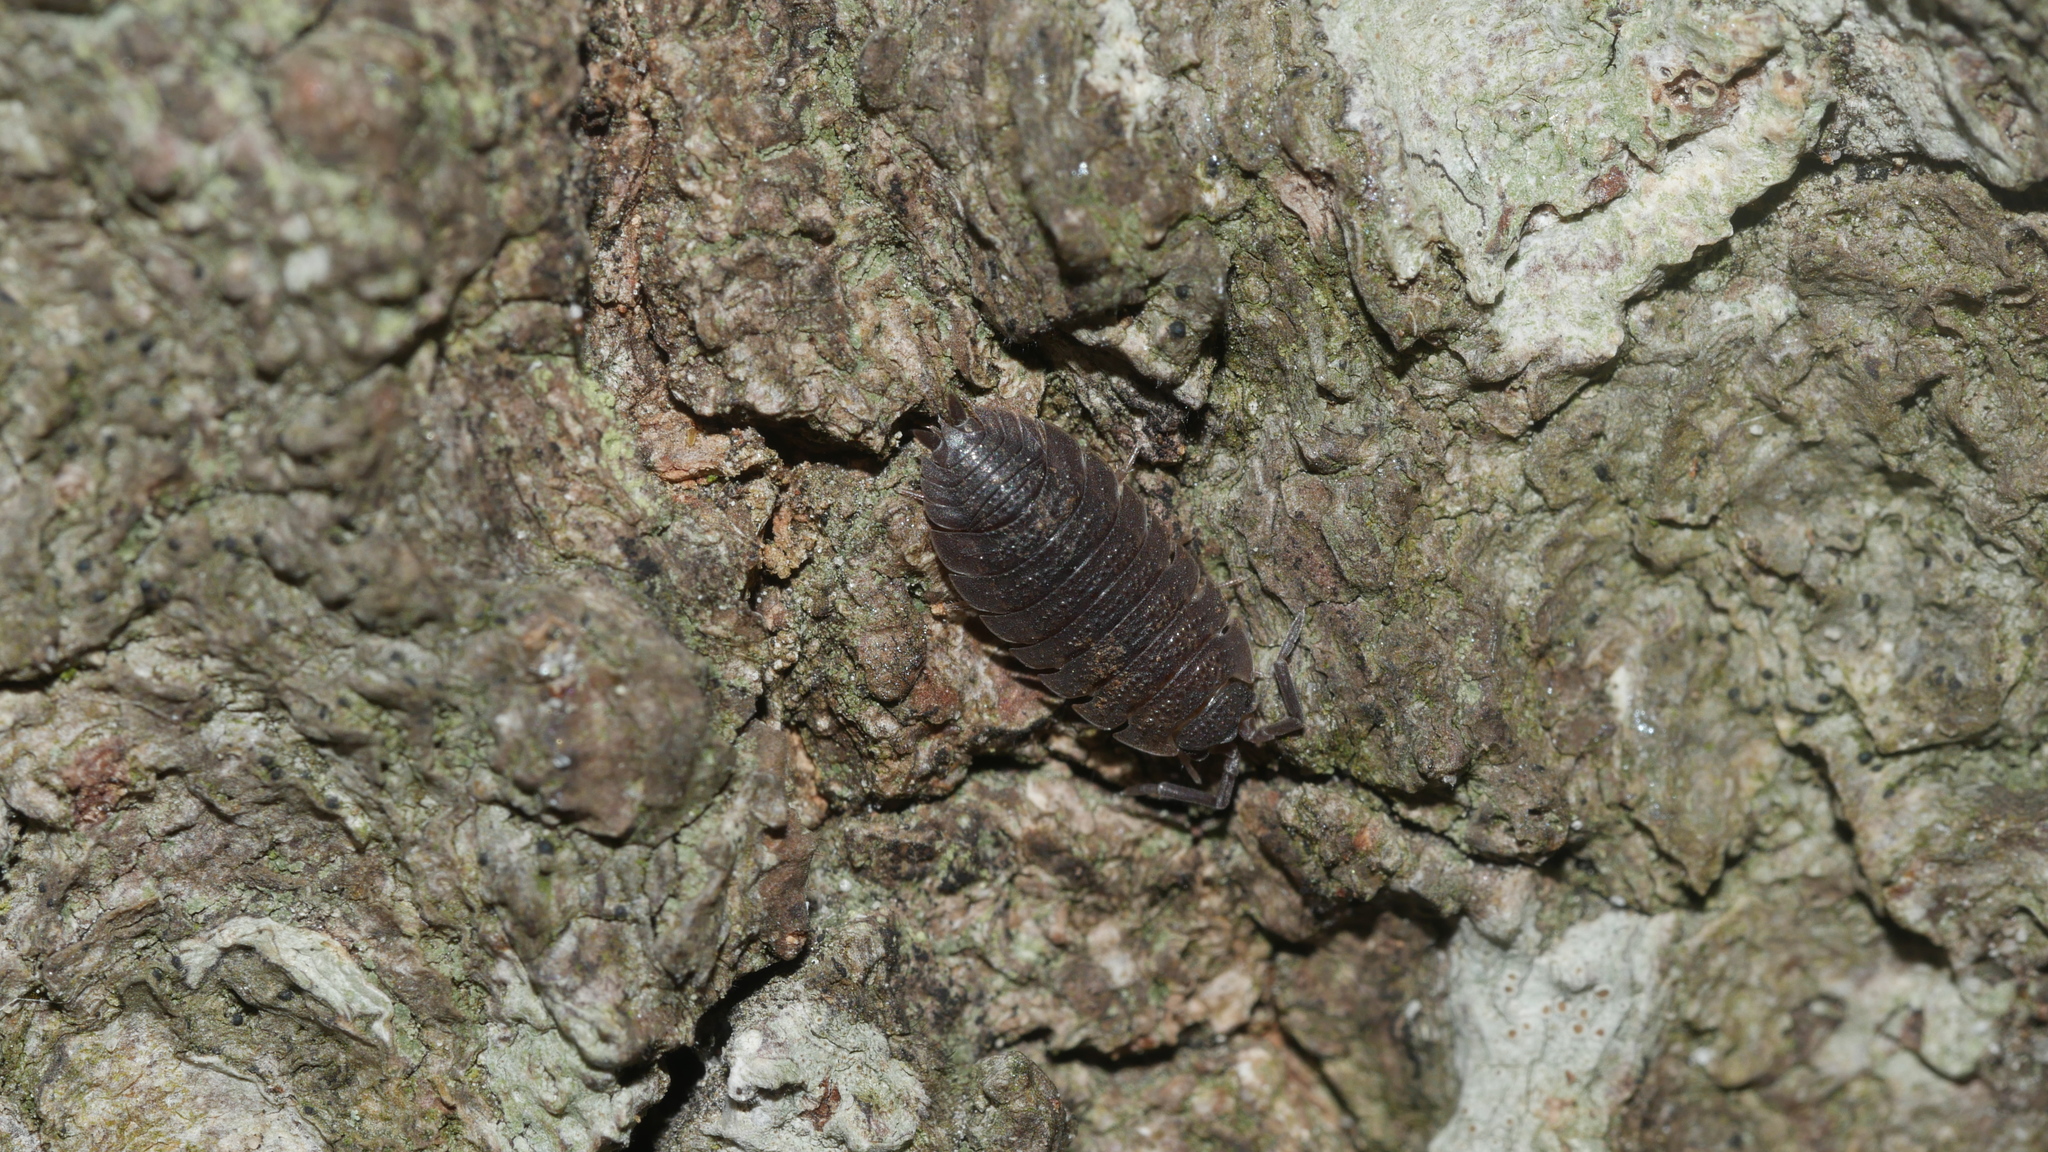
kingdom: Animalia
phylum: Arthropoda
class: Malacostraca
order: Isopoda
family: Porcellionidae
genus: Porcellio
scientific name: Porcellio scaber
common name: Common rough woodlouse
